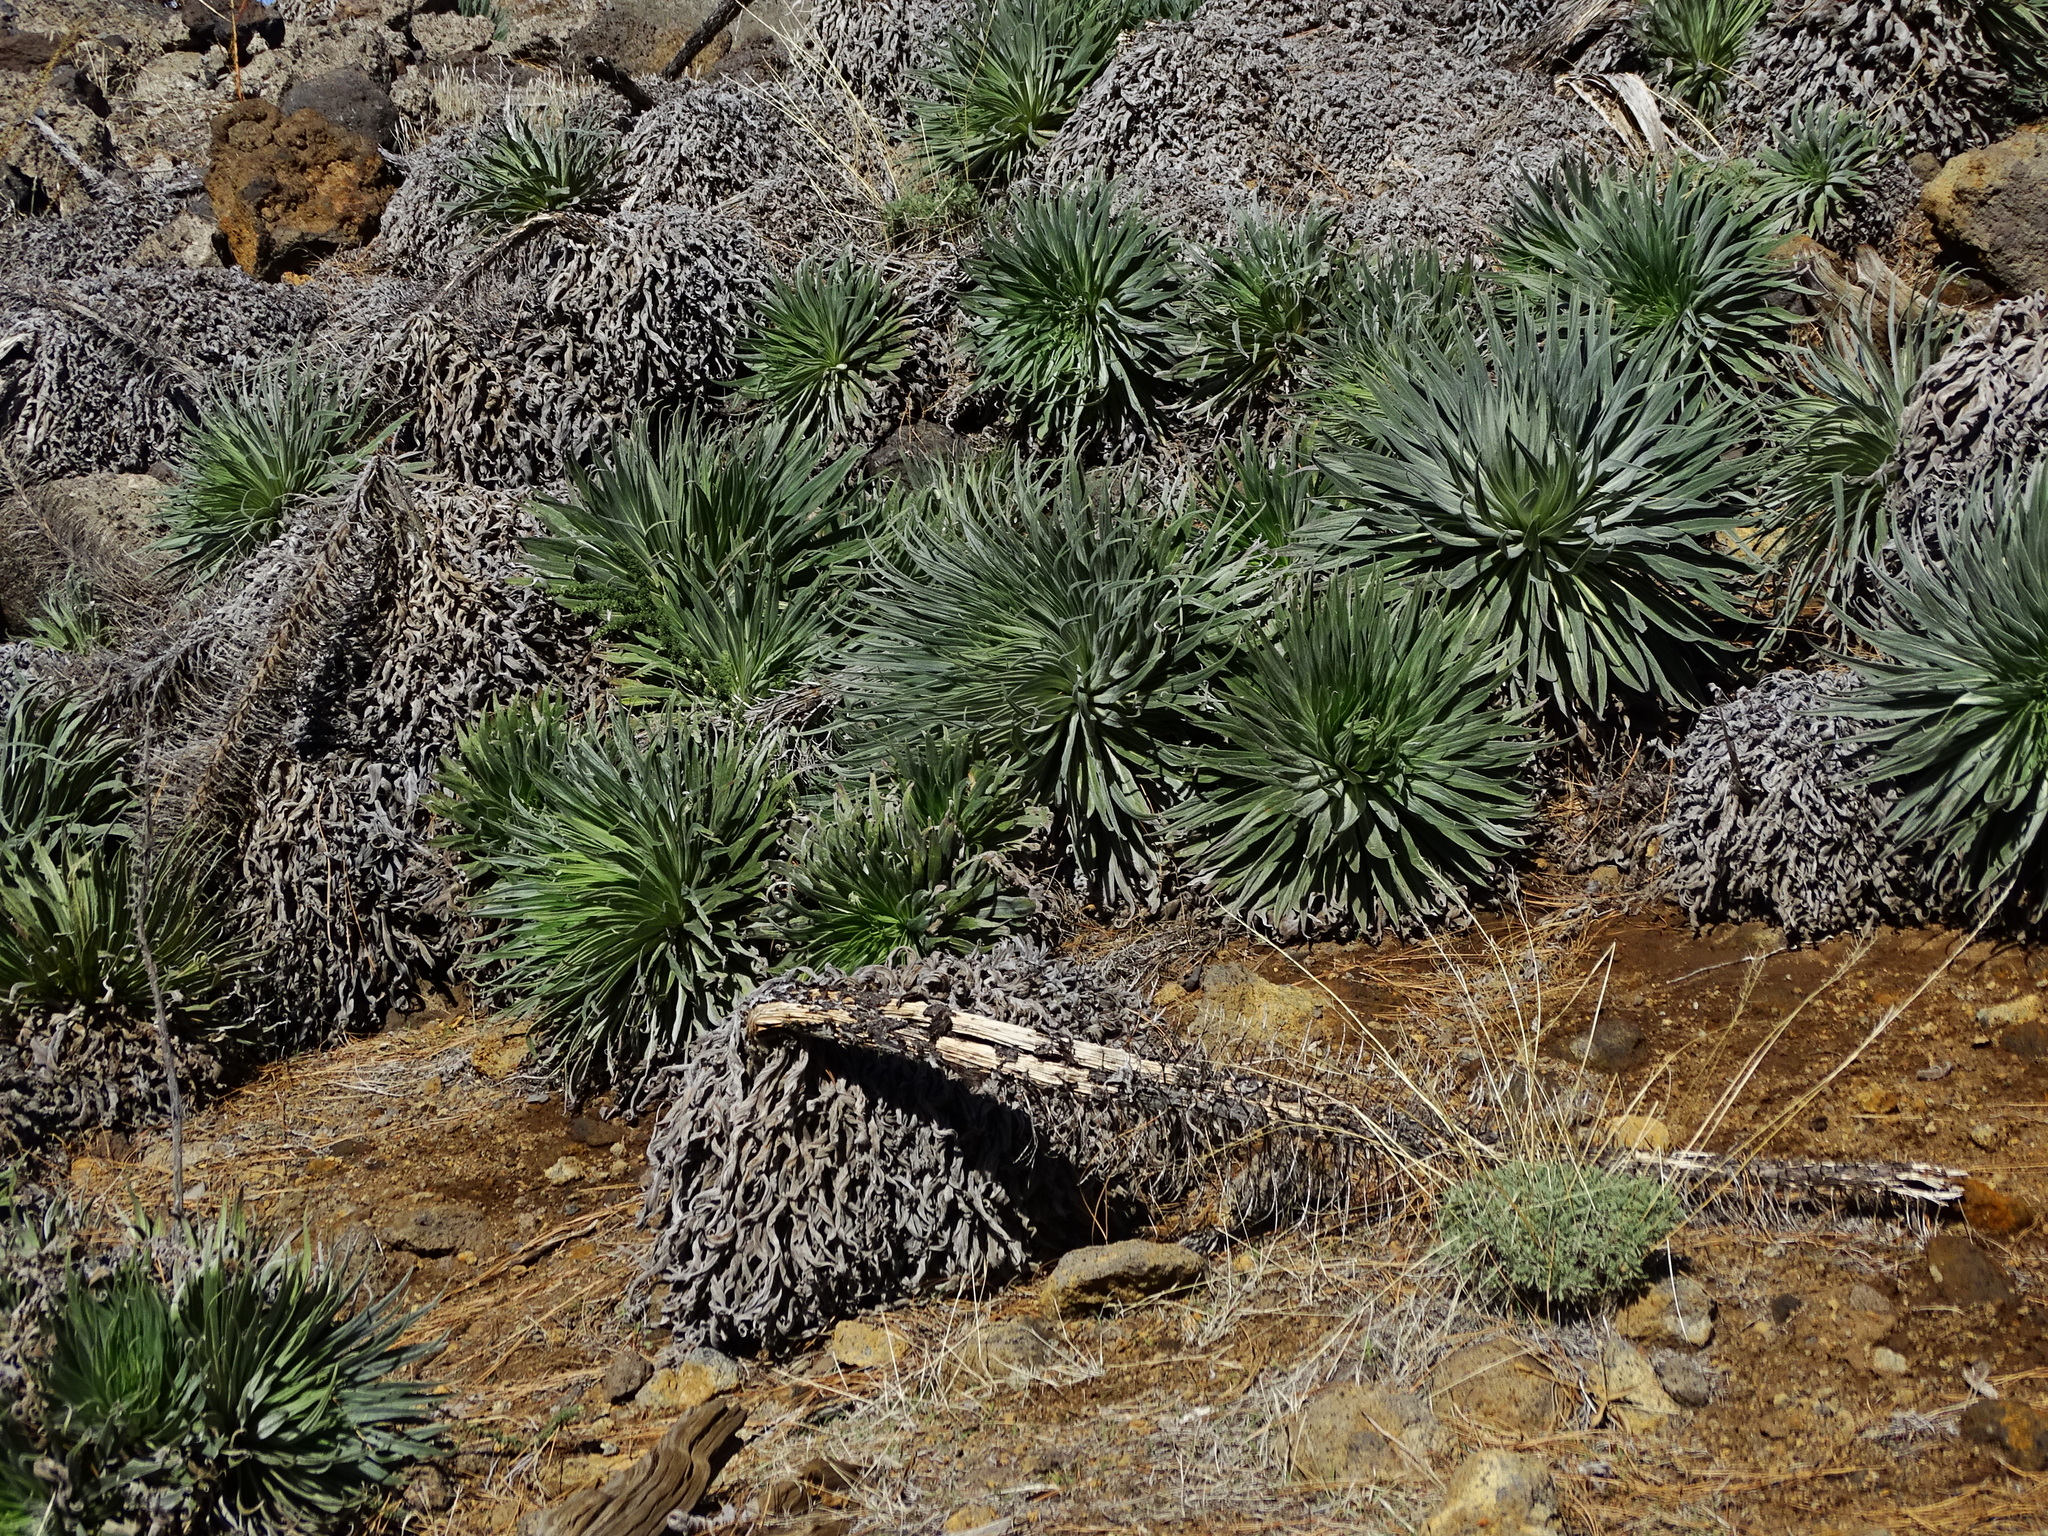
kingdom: Plantae
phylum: Tracheophyta
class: Magnoliopsida
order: Boraginales
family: Boraginaceae
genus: Echium
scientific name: Echium perezii
